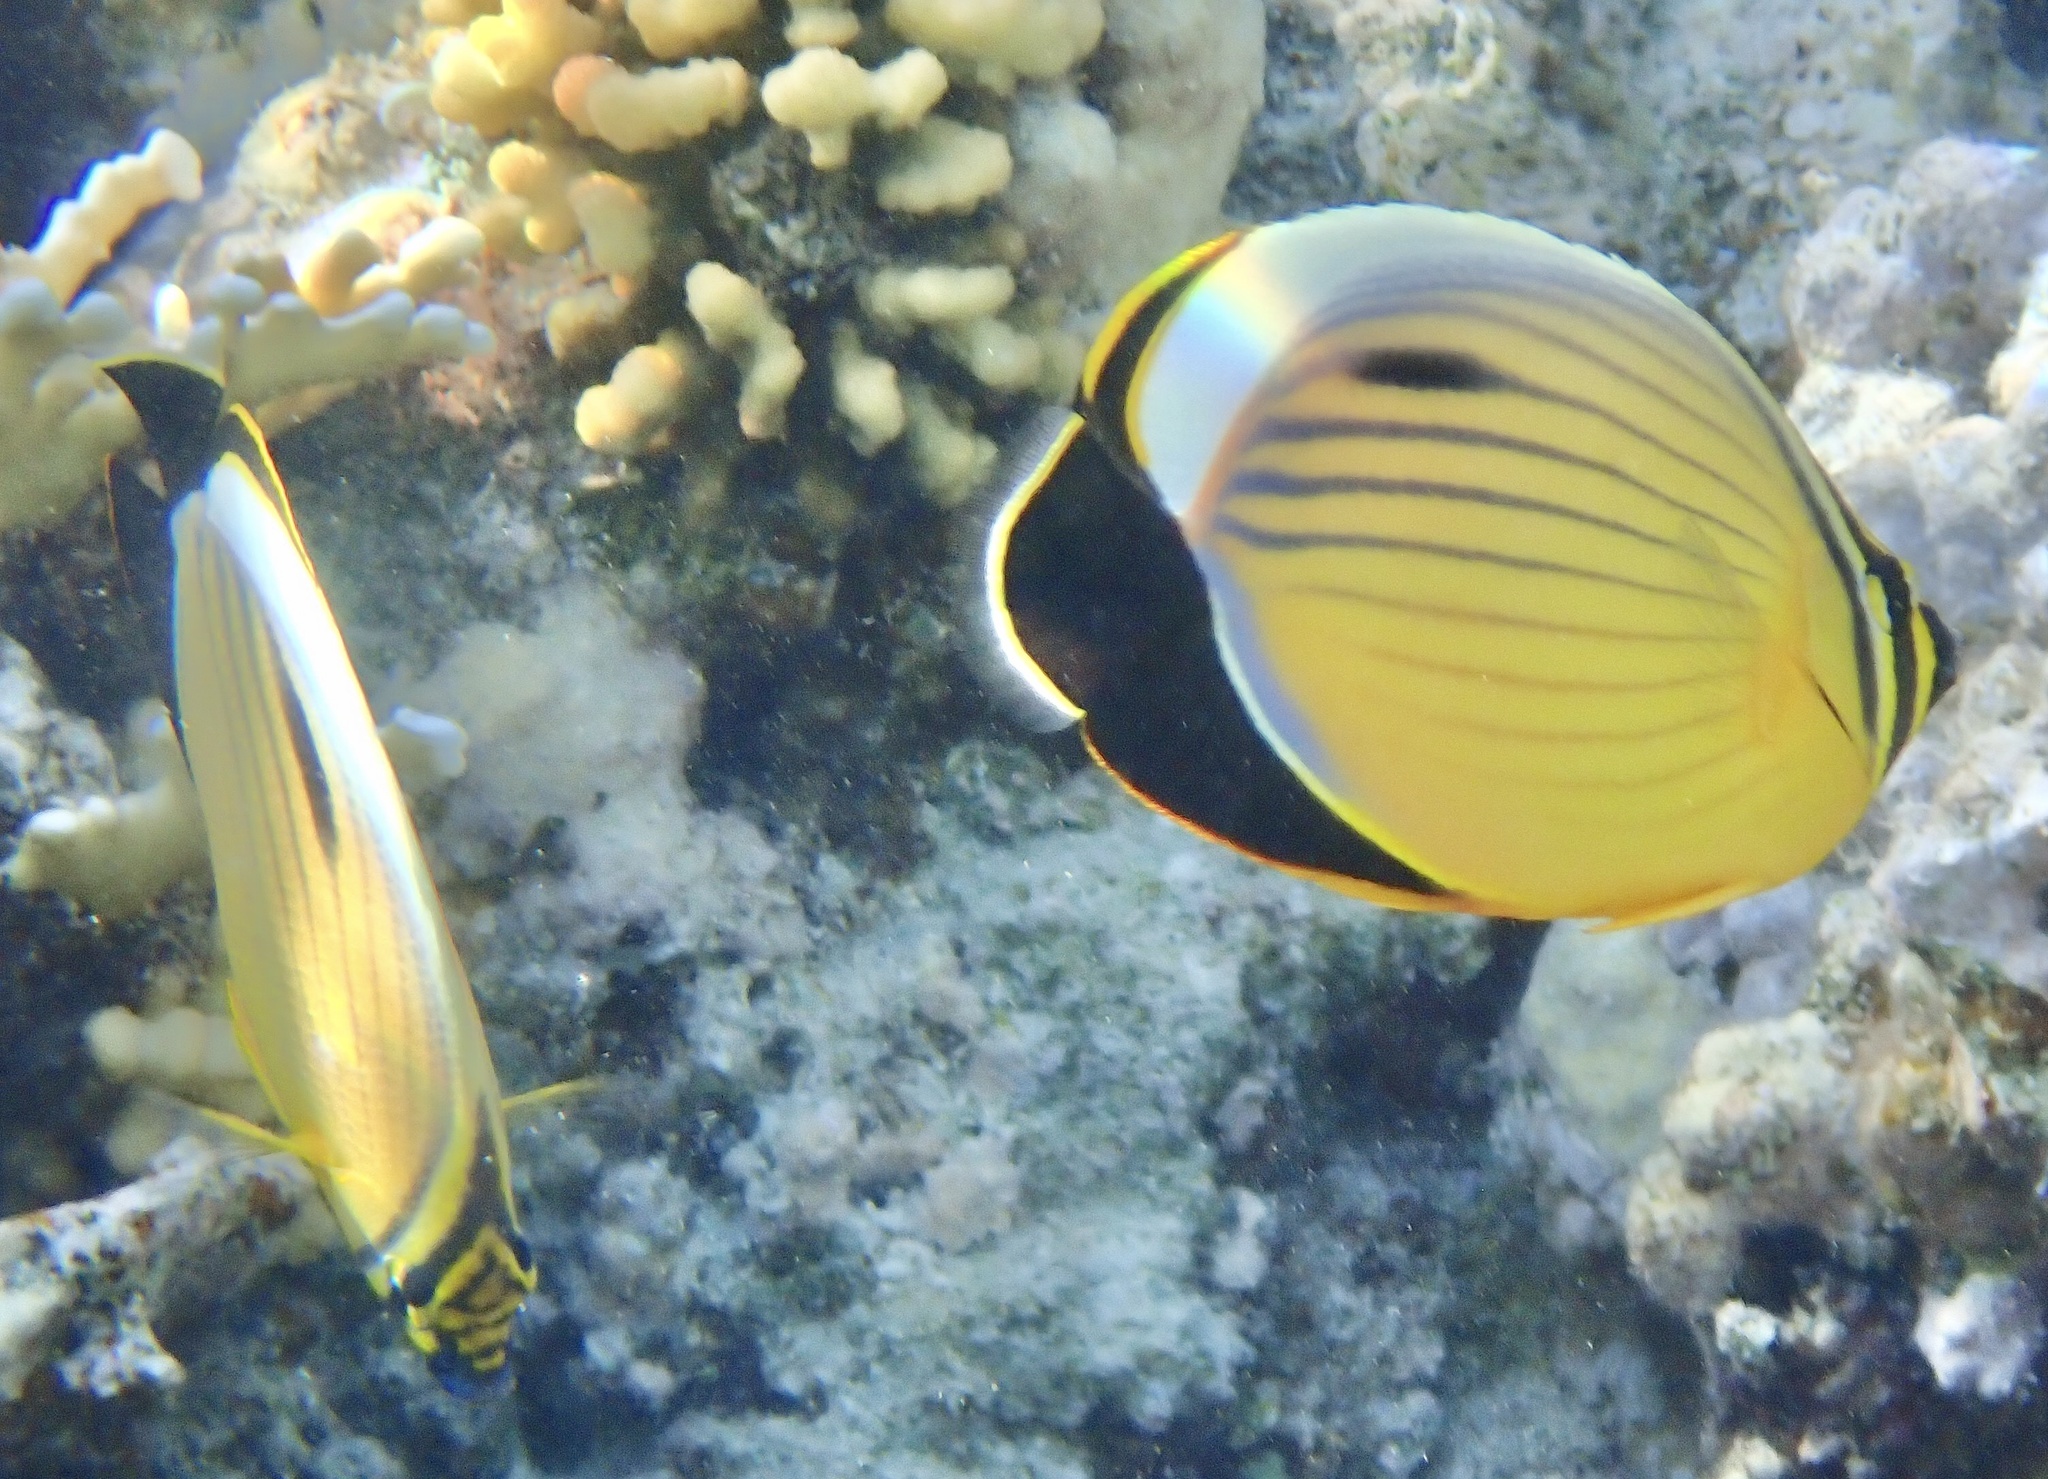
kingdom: Animalia
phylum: Chordata
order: Perciformes
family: Chaetodontidae
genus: Chaetodon
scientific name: Chaetodon austriacus
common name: Exquisite butterflyfish
